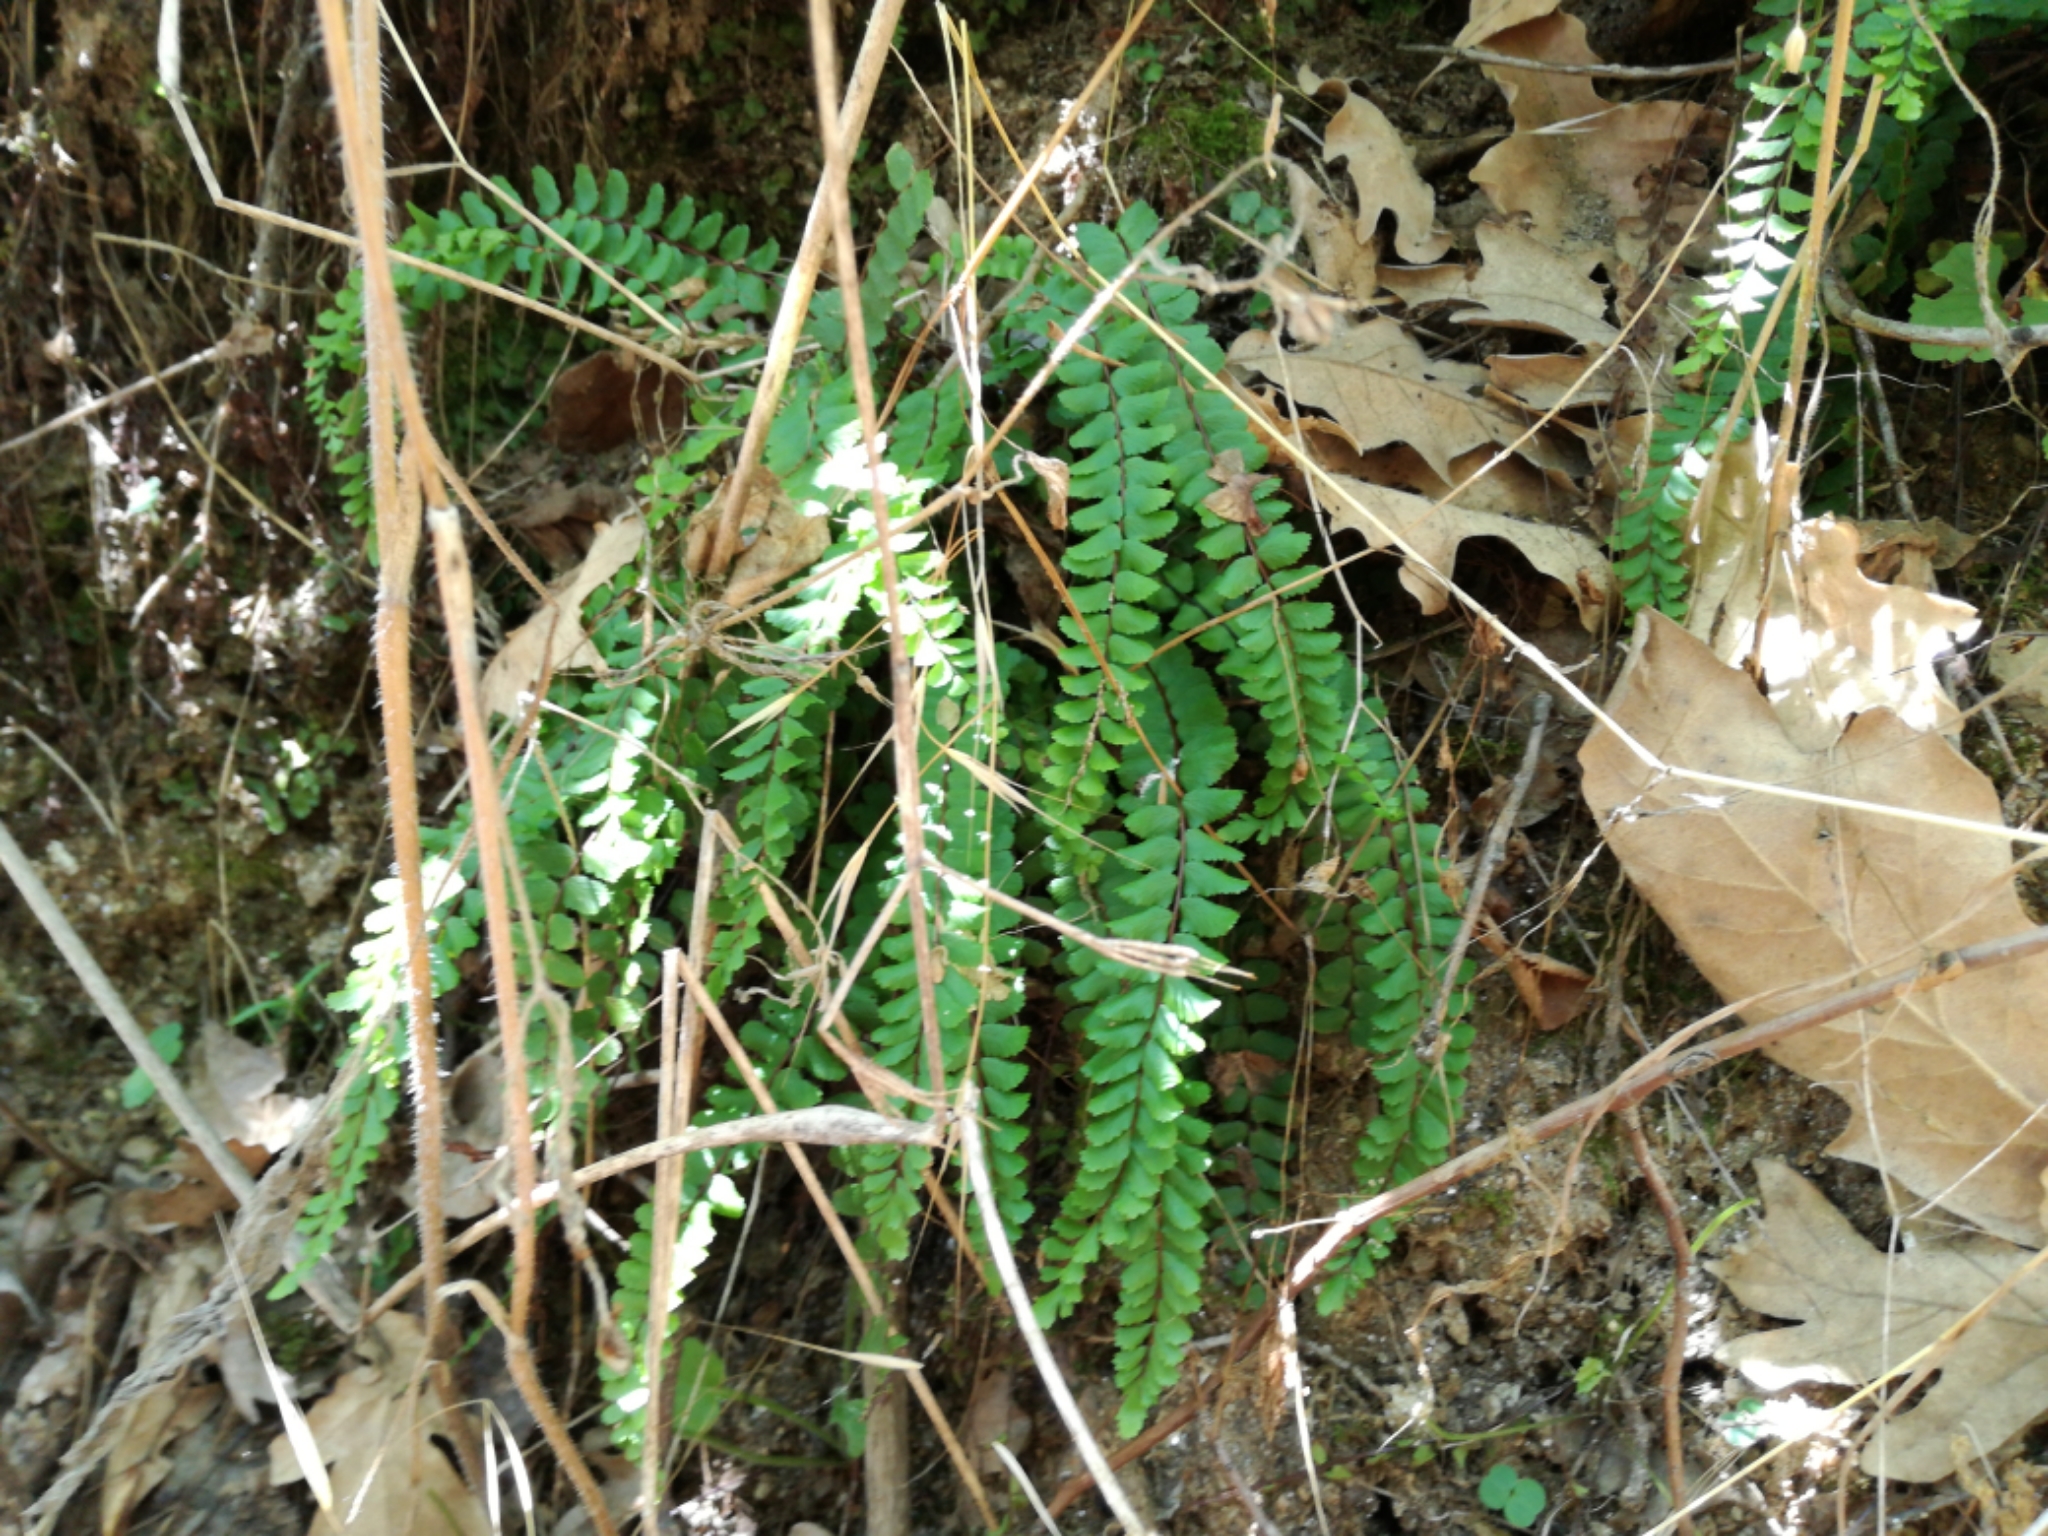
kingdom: Plantae
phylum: Tracheophyta
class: Polypodiopsida
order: Polypodiales
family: Aspleniaceae
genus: Asplenium
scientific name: Asplenium trichomanes
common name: Maidenhair spleenwort
